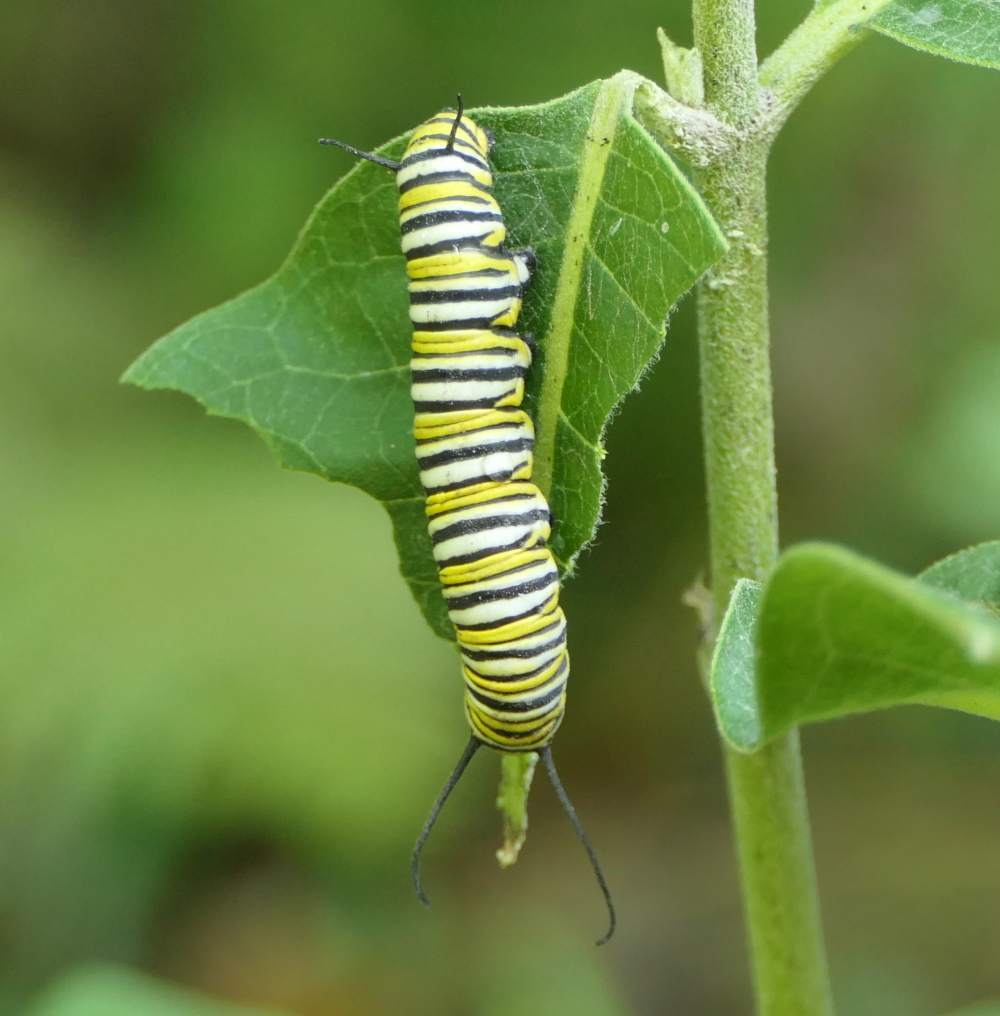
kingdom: Animalia
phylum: Arthropoda
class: Insecta
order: Lepidoptera
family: Nymphalidae
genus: Danaus
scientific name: Danaus plexippus
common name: Monarch
